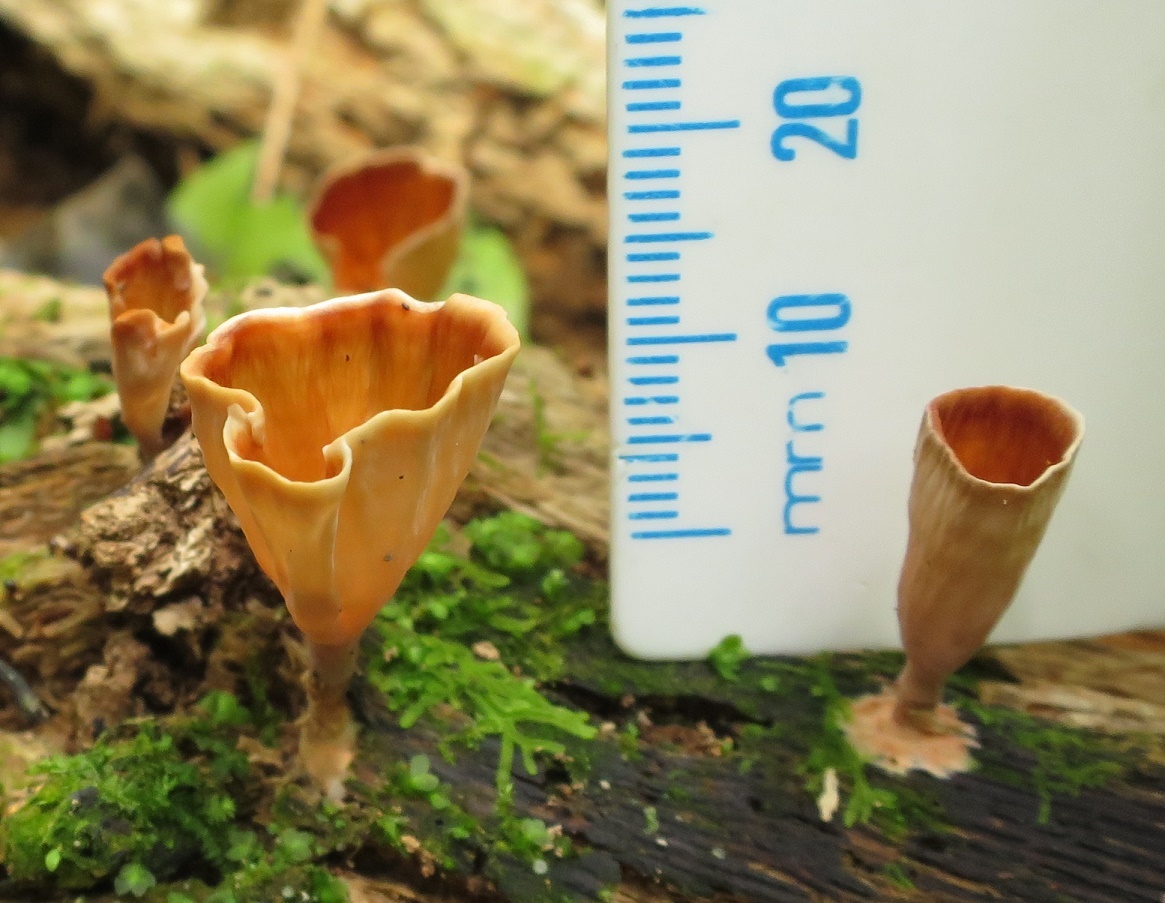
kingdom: Fungi
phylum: Basidiomycota
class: Agaricomycetes
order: Polyporales
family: Podoscyphaceae
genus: Podoscypha
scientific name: Podoscypha petalodes
